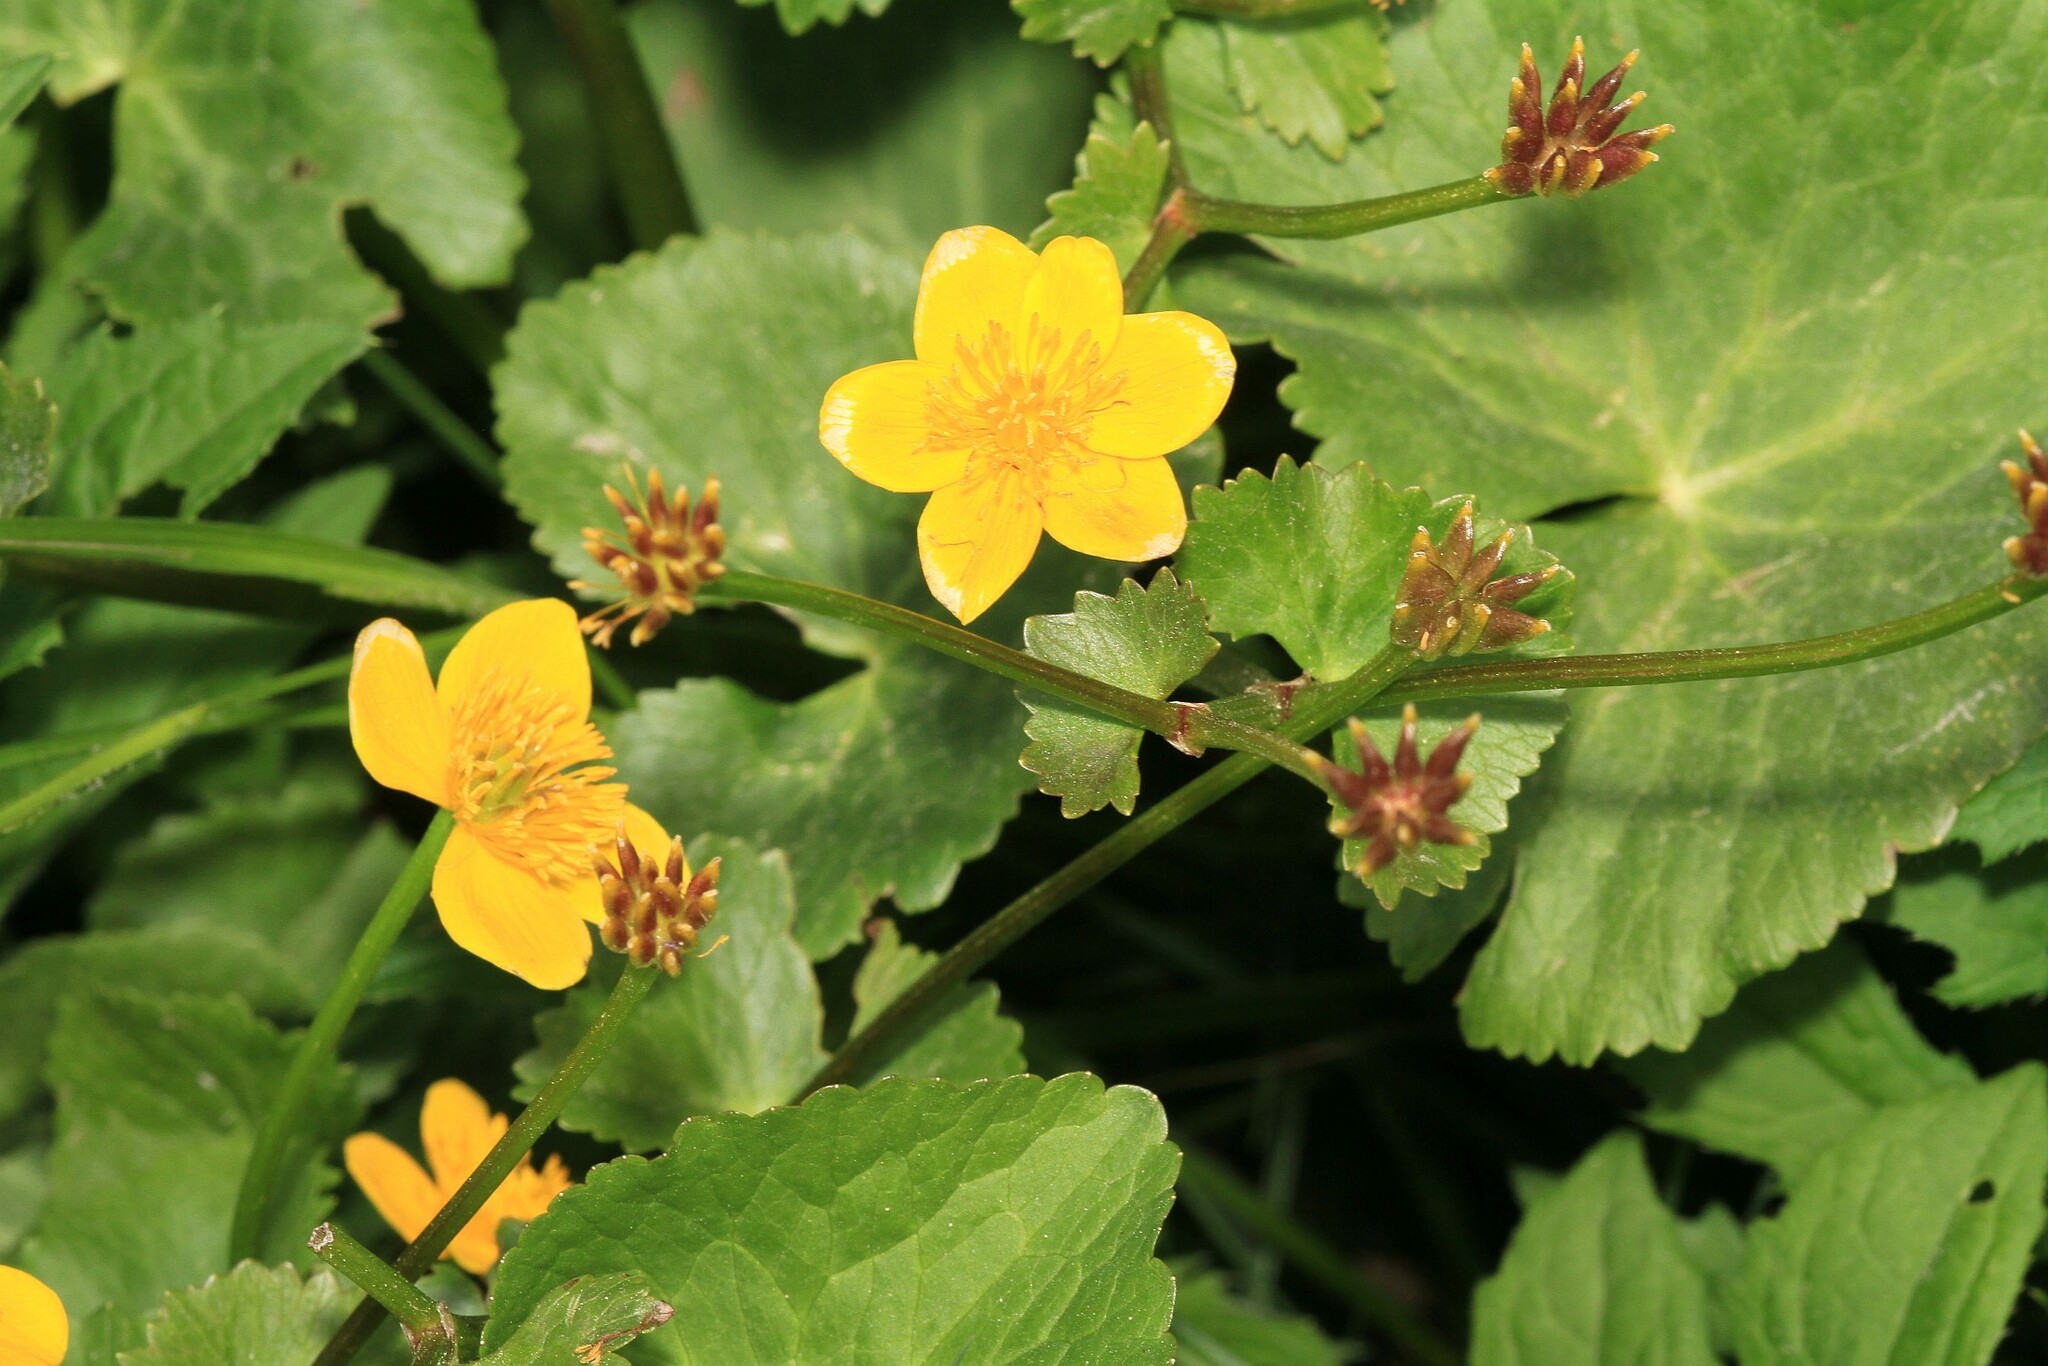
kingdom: Plantae
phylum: Tracheophyta
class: Magnoliopsida
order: Ranunculales
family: Ranunculaceae
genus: Caltha
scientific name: Caltha palustris
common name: Marsh marigold
